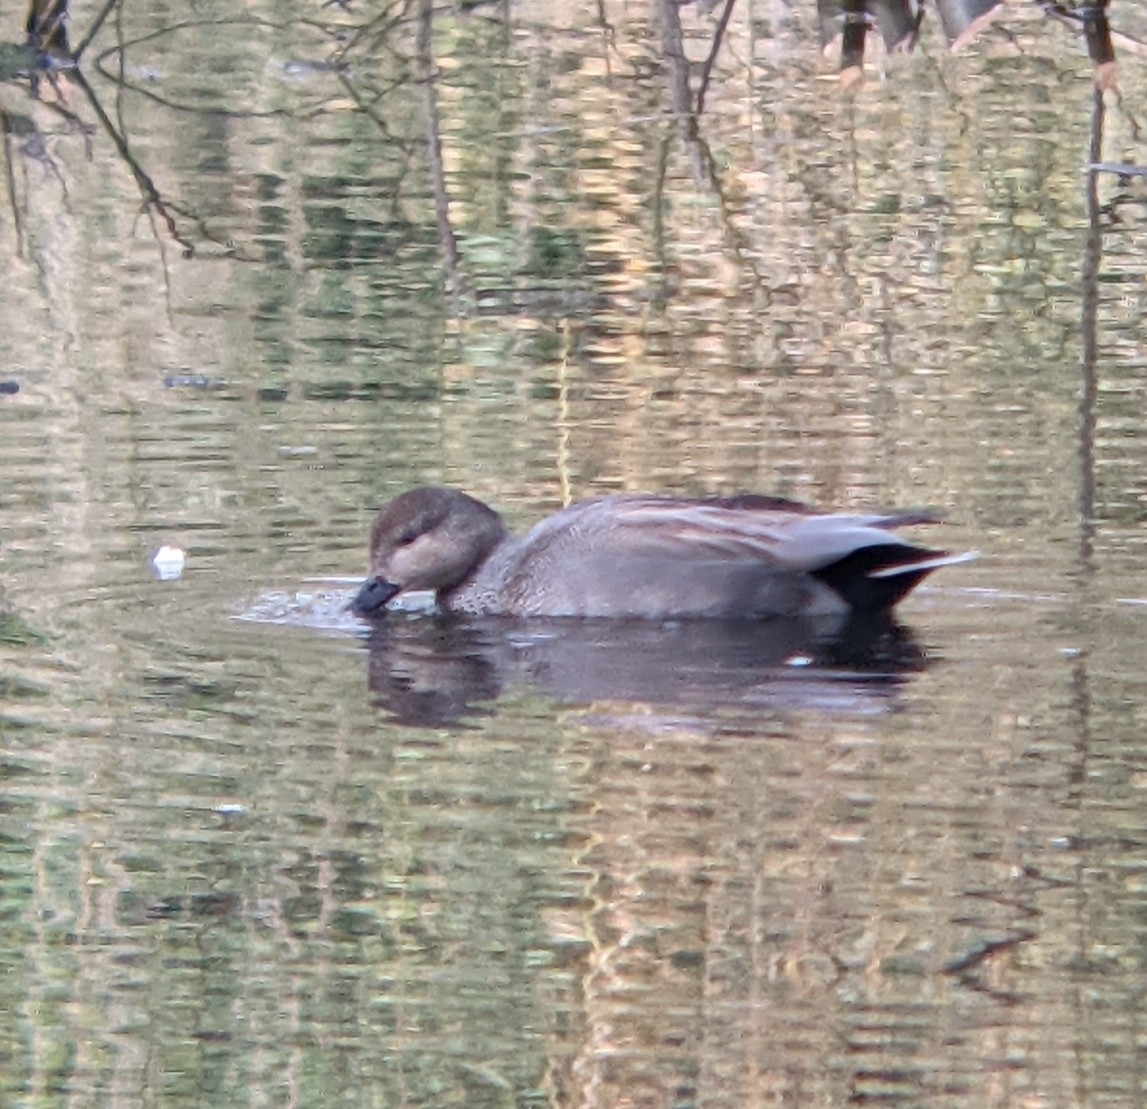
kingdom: Animalia
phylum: Chordata
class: Aves
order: Anseriformes
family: Anatidae
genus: Mareca
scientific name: Mareca strepera
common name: Gadwall
